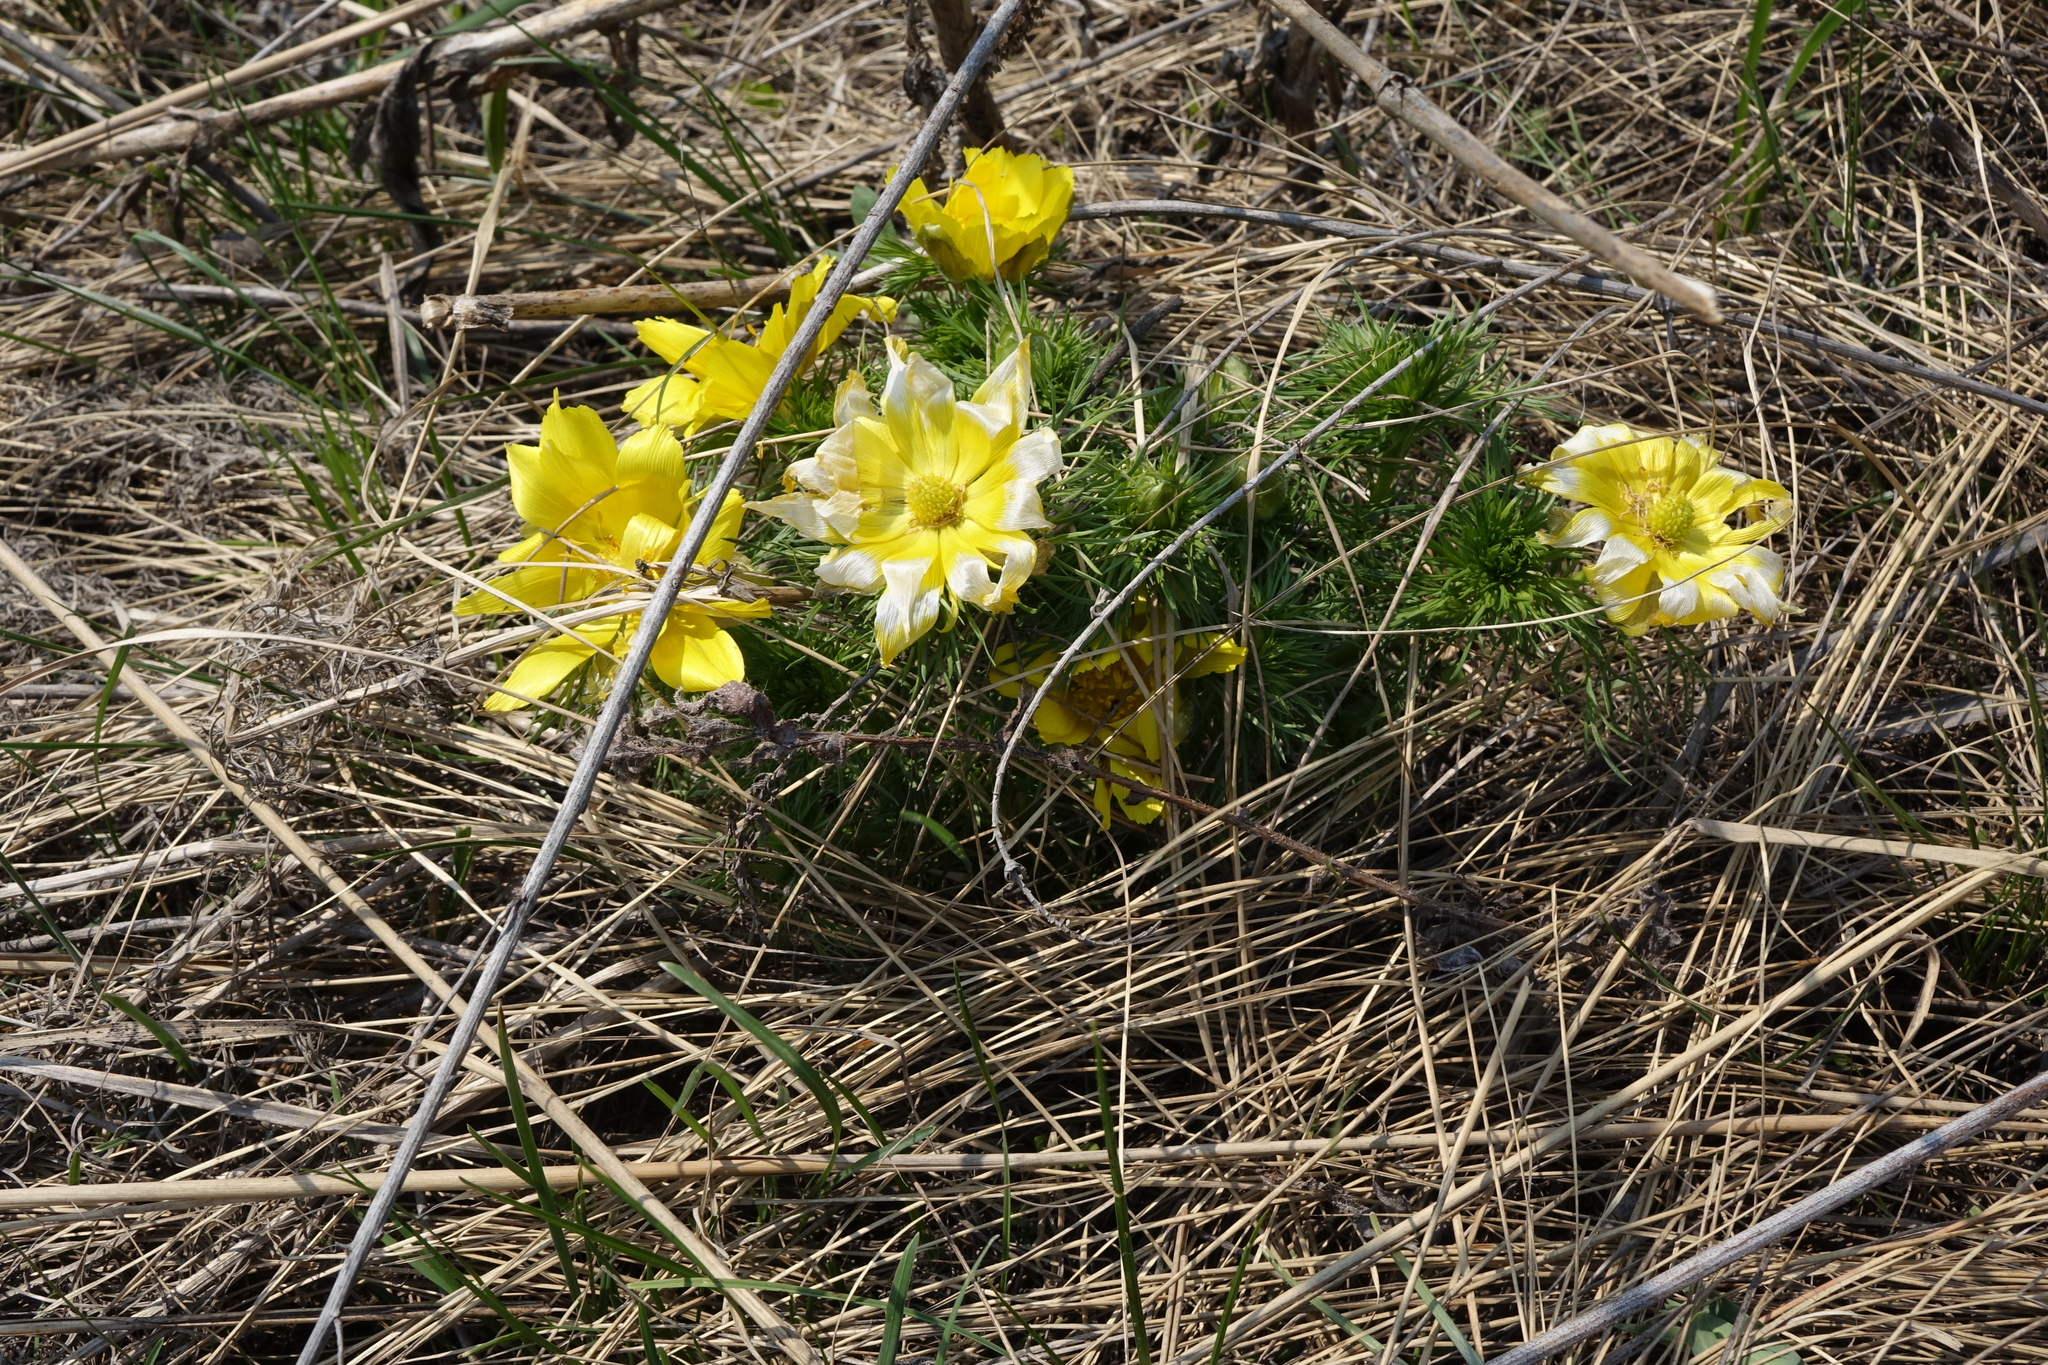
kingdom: Plantae
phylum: Tracheophyta
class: Magnoliopsida
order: Ranunculales
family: Ranunculaceae
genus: Adonis
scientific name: Adonis vernalis
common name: Yellow pheasants-eye
